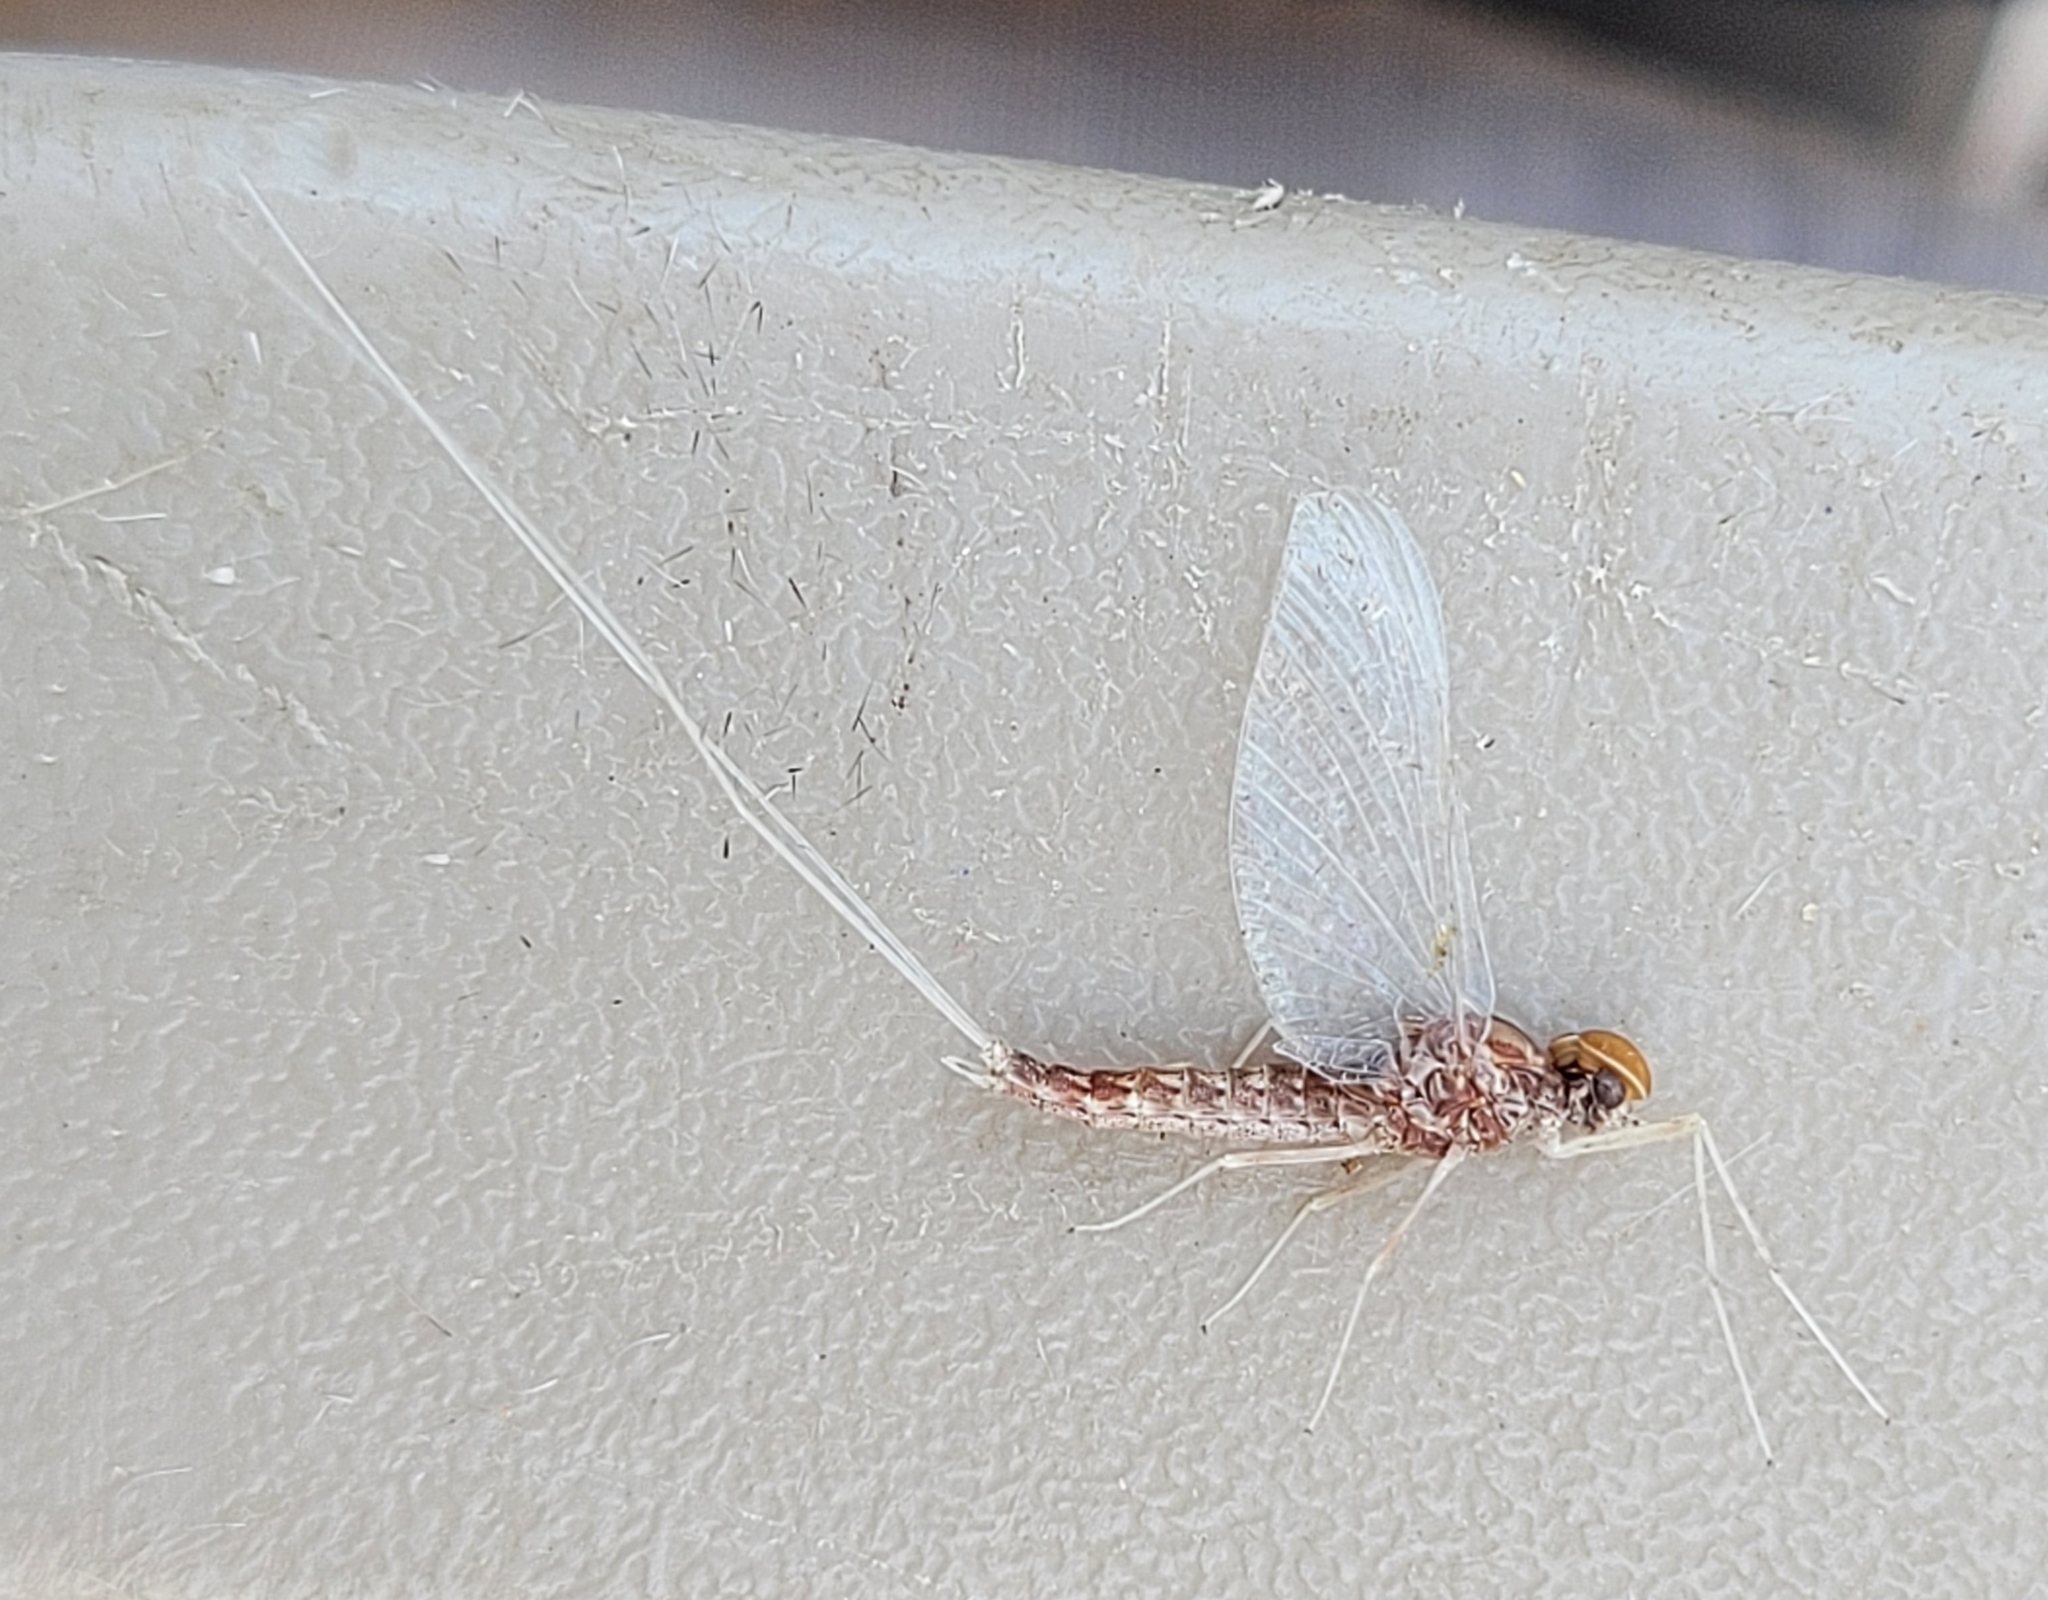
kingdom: Animalia
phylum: Arthropoda
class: Insecta
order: Ephemeroptera
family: Baetidae
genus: Callibaetis
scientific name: Callibaetis ferrugineus
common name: Red speckled dun
